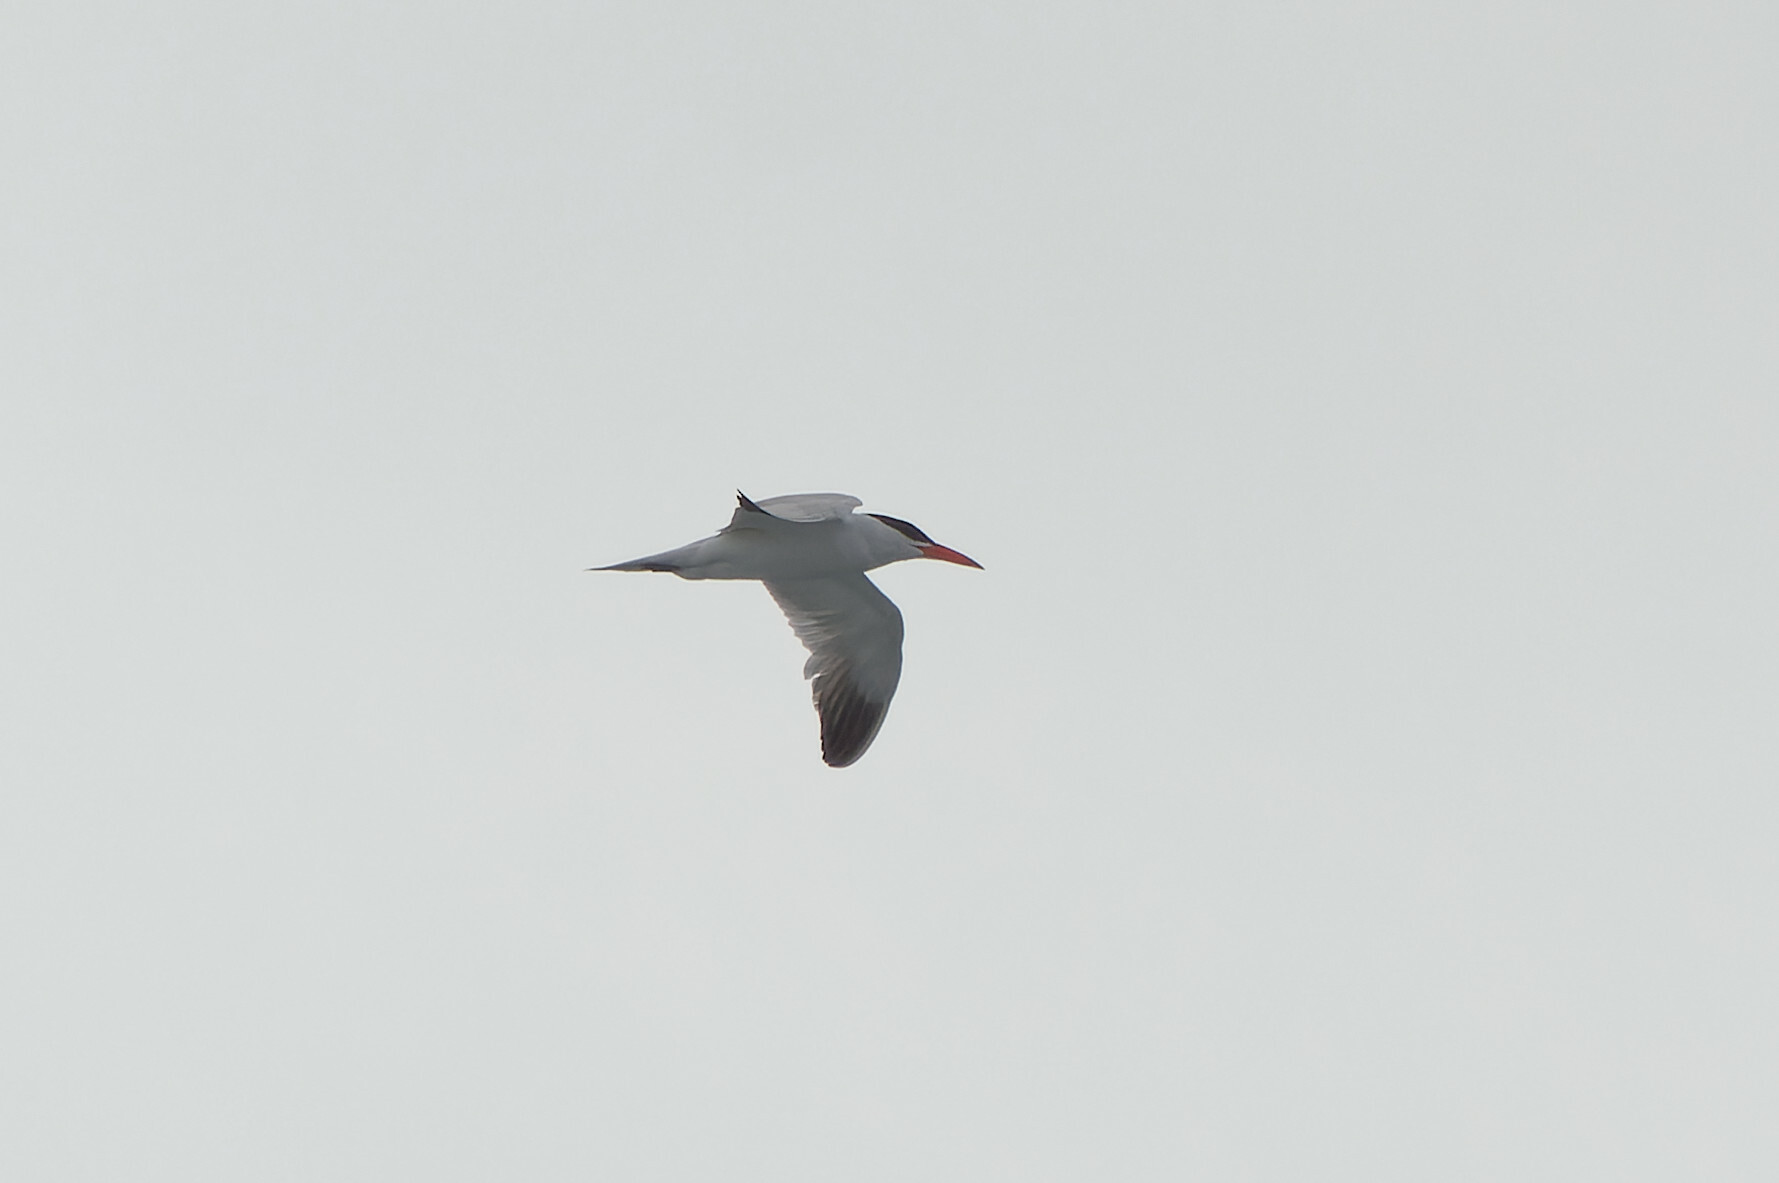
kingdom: Animalia
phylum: Chordata
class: Aves
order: Charadriiformes
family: Laridae
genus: Hydroprogne
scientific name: Hydroprogne caspia
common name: Caspian tern
